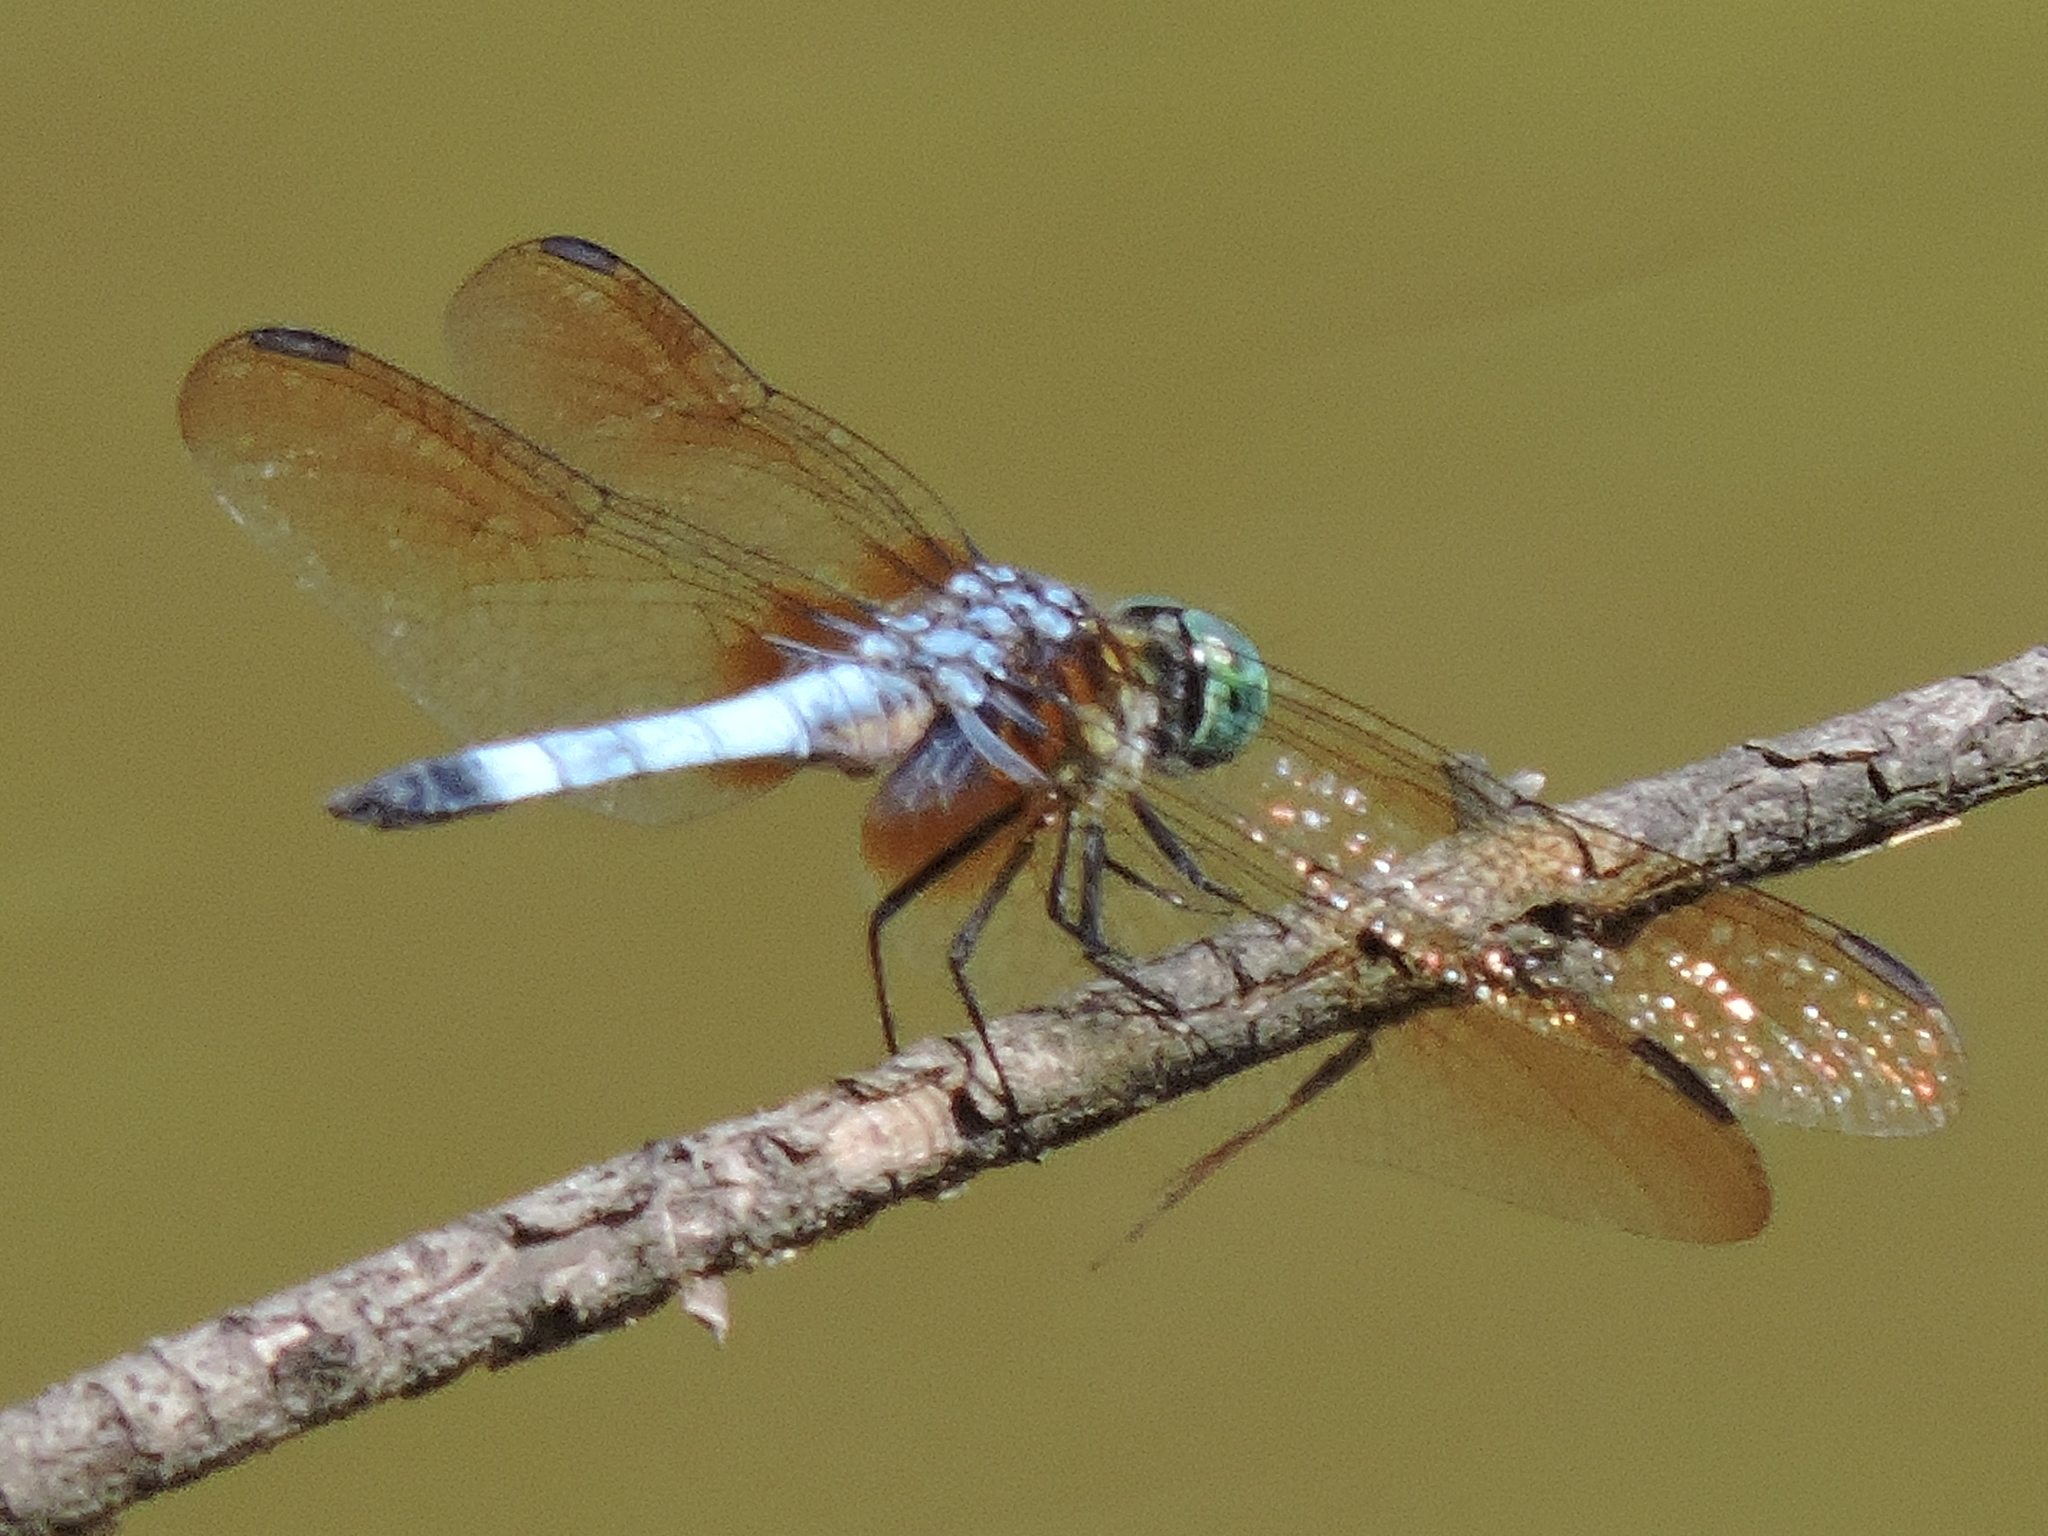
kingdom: Animalia
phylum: Arthropoda
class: Insecta
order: Odonata
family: Libellulidae
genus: Pachydiplax
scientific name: Pachydiplax longipennis
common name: Blue dasher
